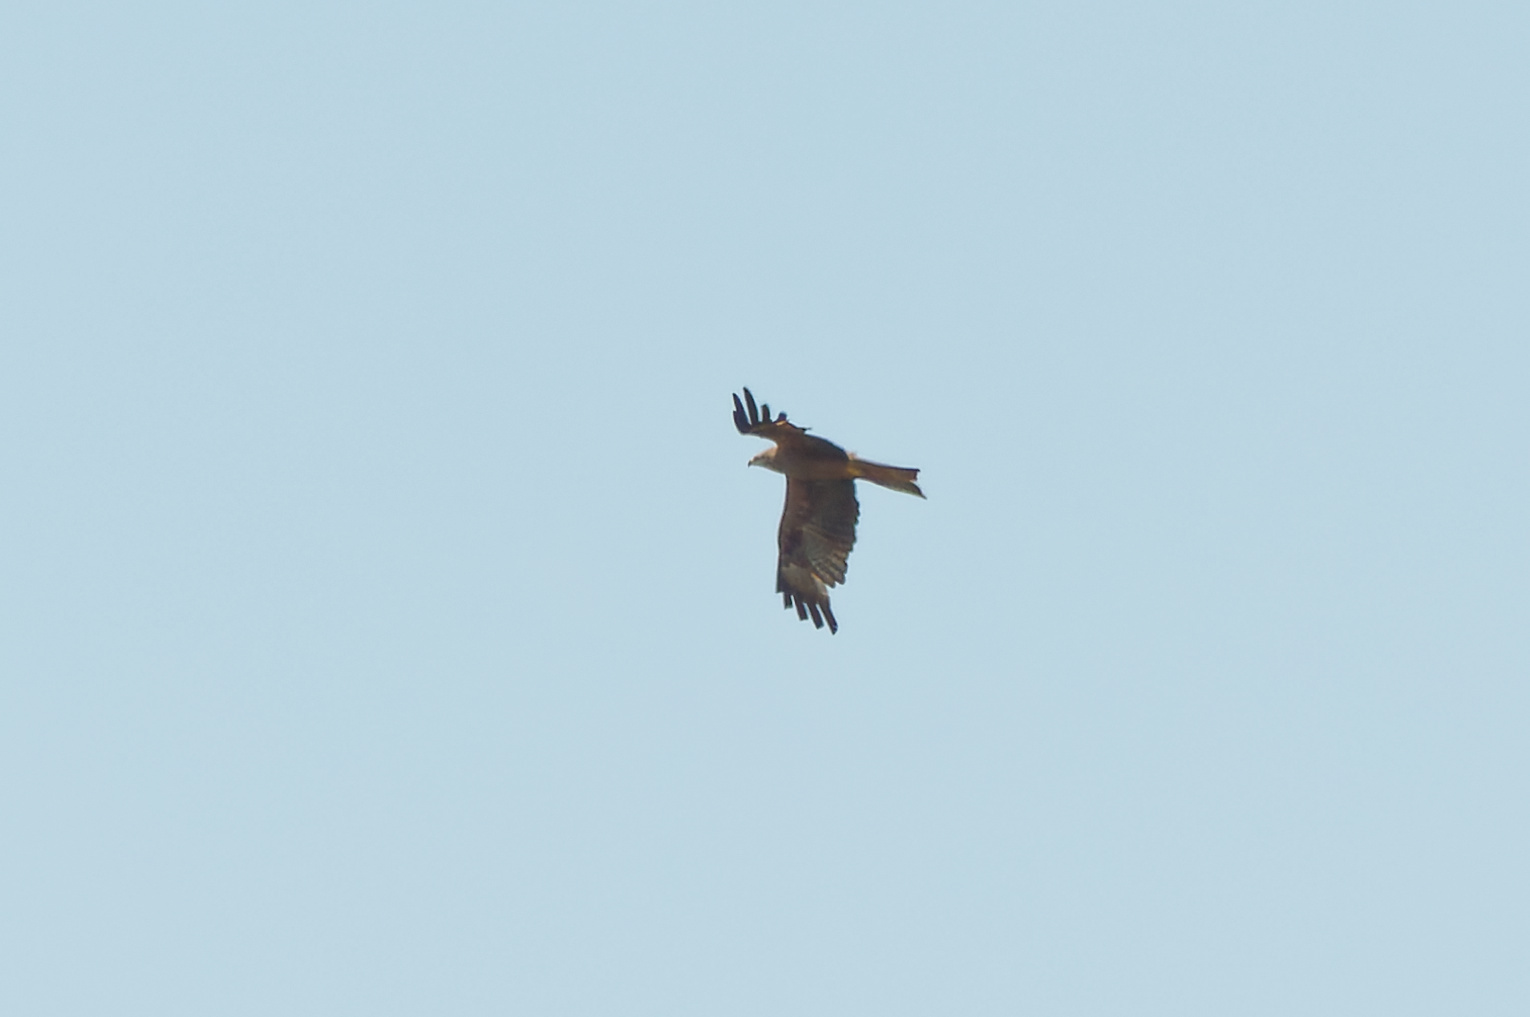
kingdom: Animalia
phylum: Chordata
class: Aves
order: Accipitriformes
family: Accipitridae
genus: Milvus
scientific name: Milvus migrans
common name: Black kite
